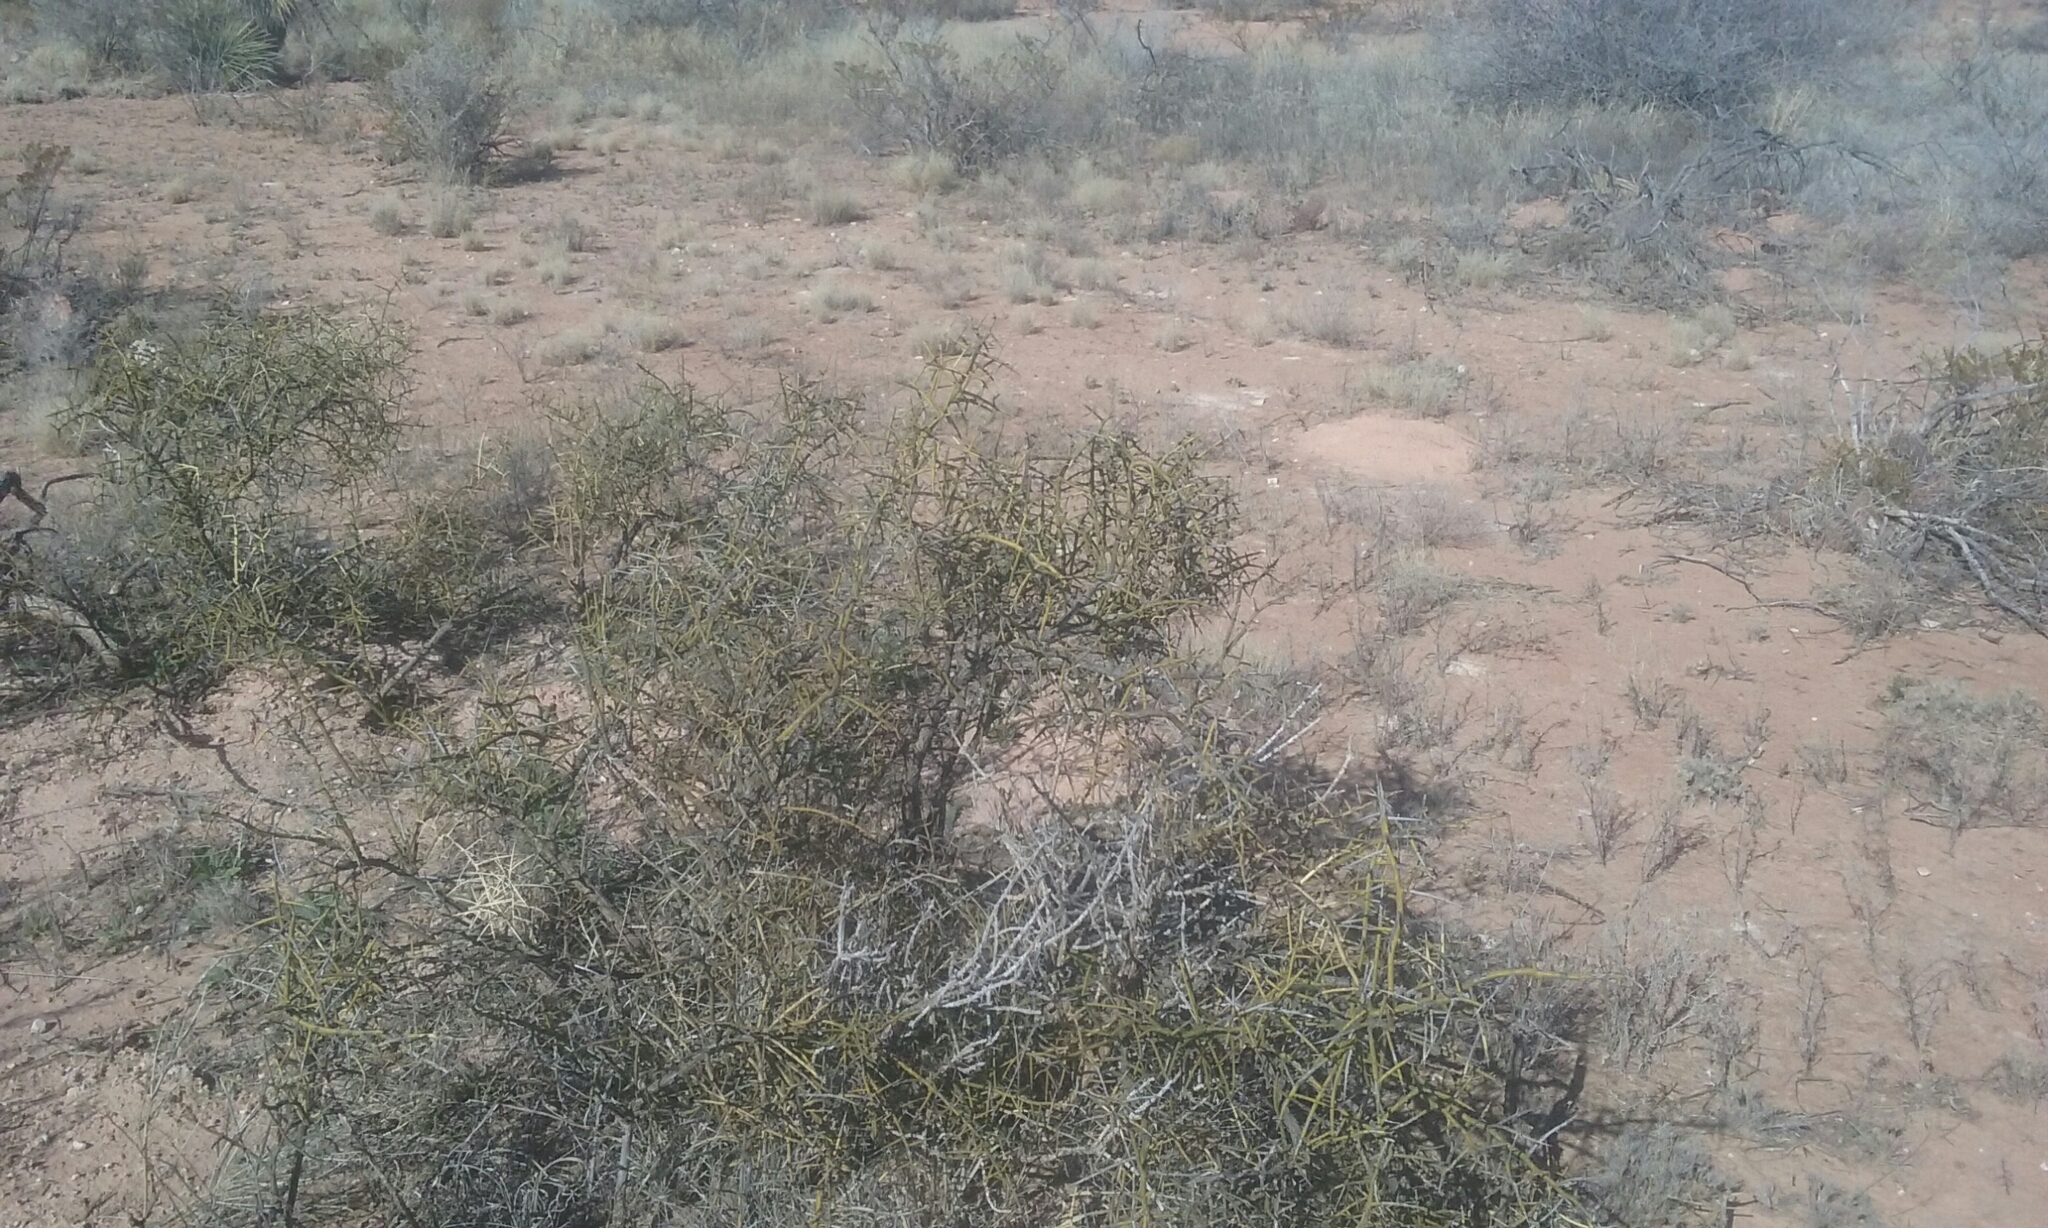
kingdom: Plantae
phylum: Tracheophyta
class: Magnoliopsida
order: Brassicales
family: Koeberliniaceae
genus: Koeberlinia
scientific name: Koeberlinia spinosa
